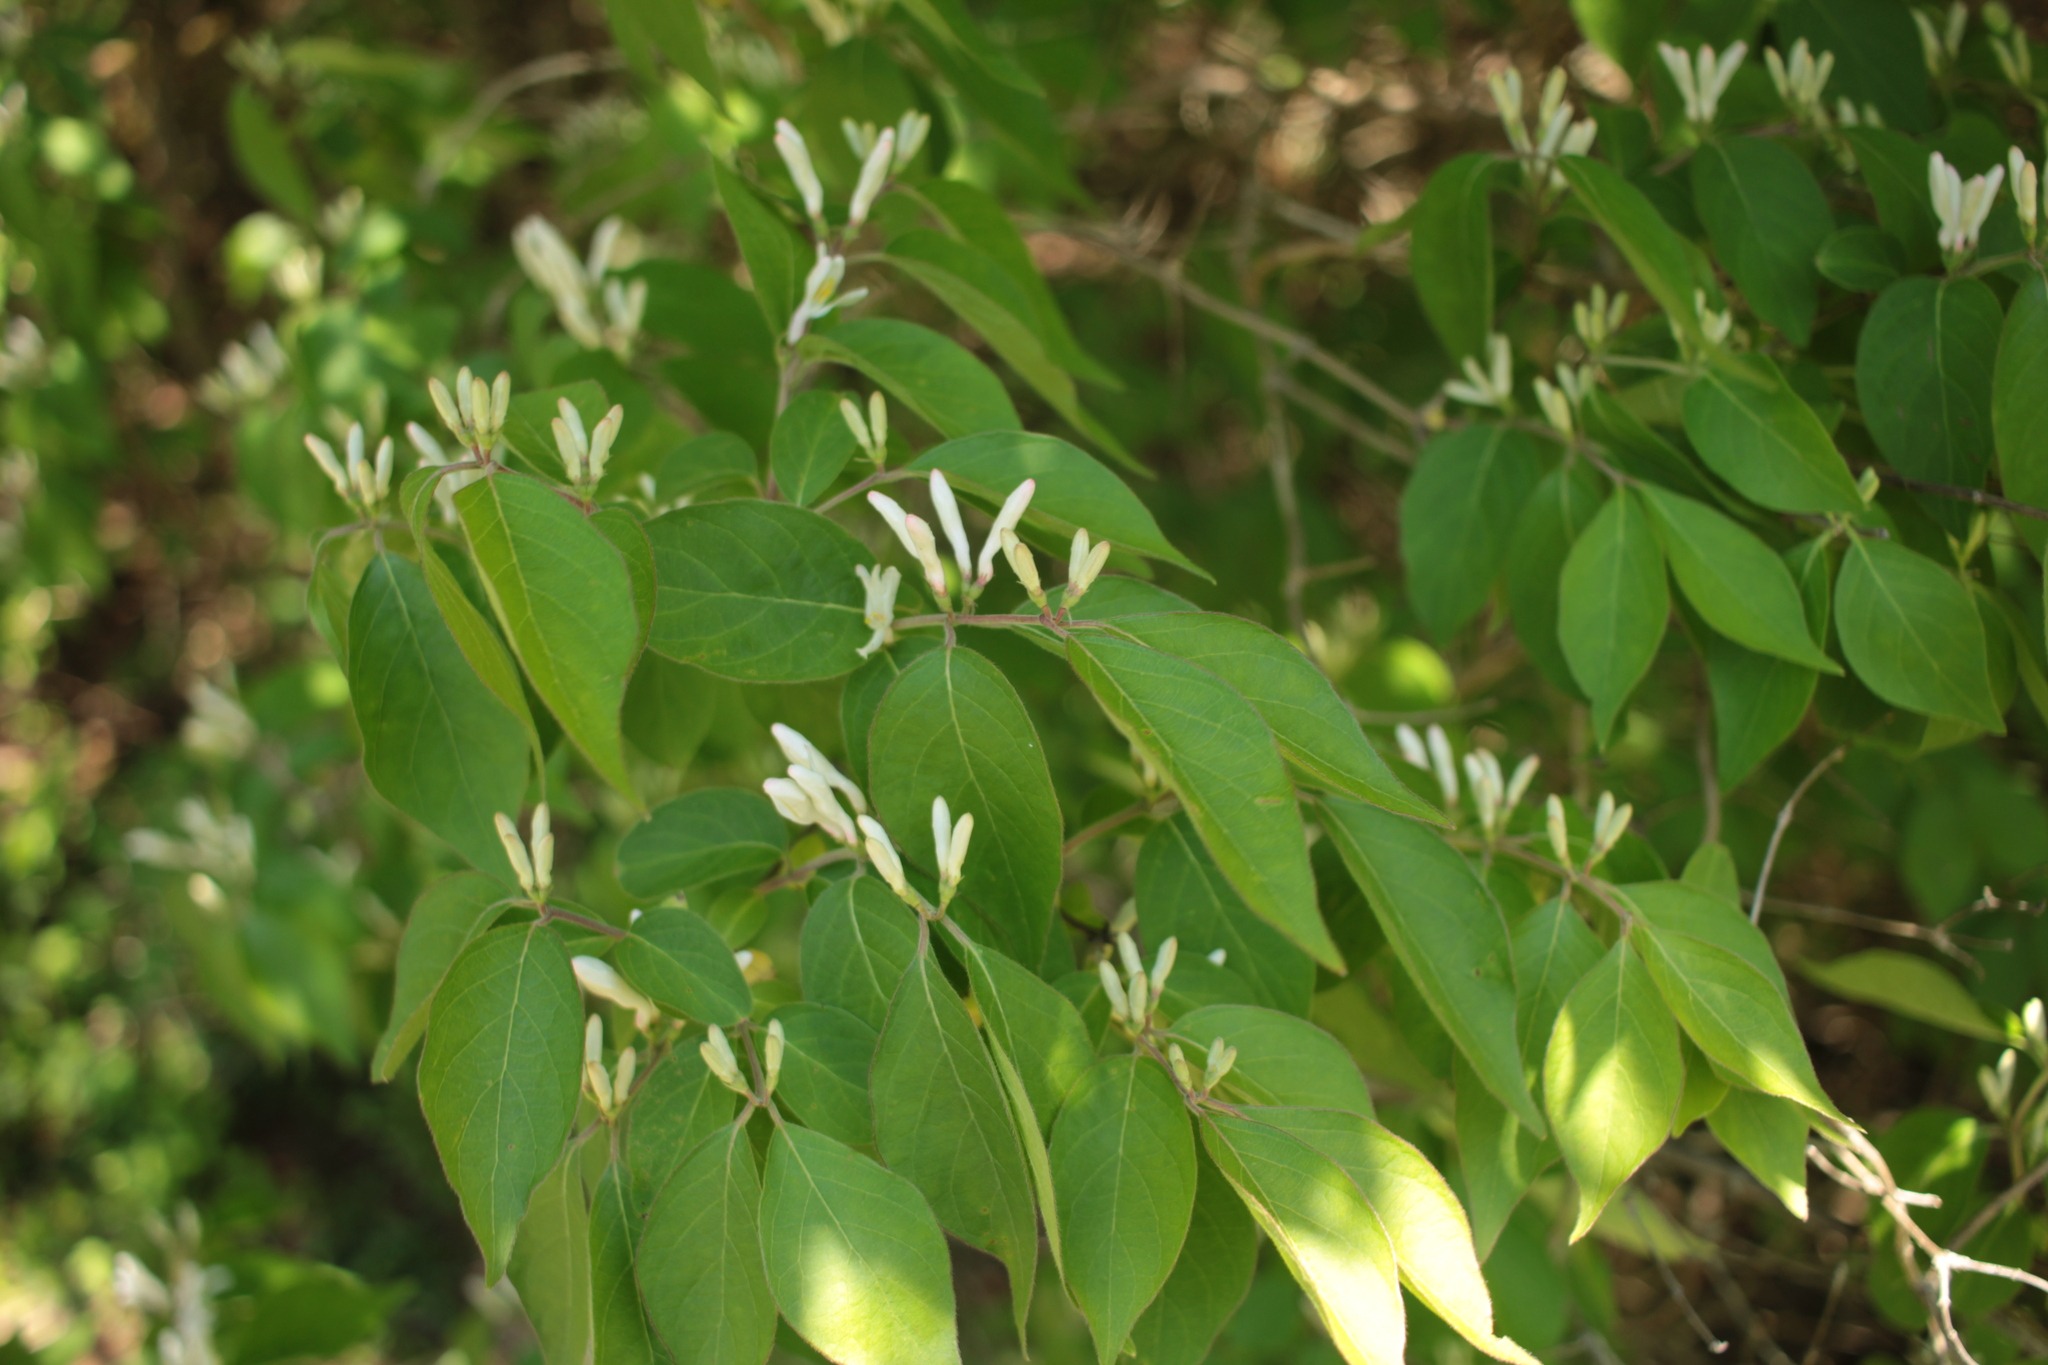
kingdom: Plantae
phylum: Tracheophyta
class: Magnoliopsida
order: Dipsacales
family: Caprifoliaceae
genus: Lonicera
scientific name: Lonicera maackii
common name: Amur honeysuckle
